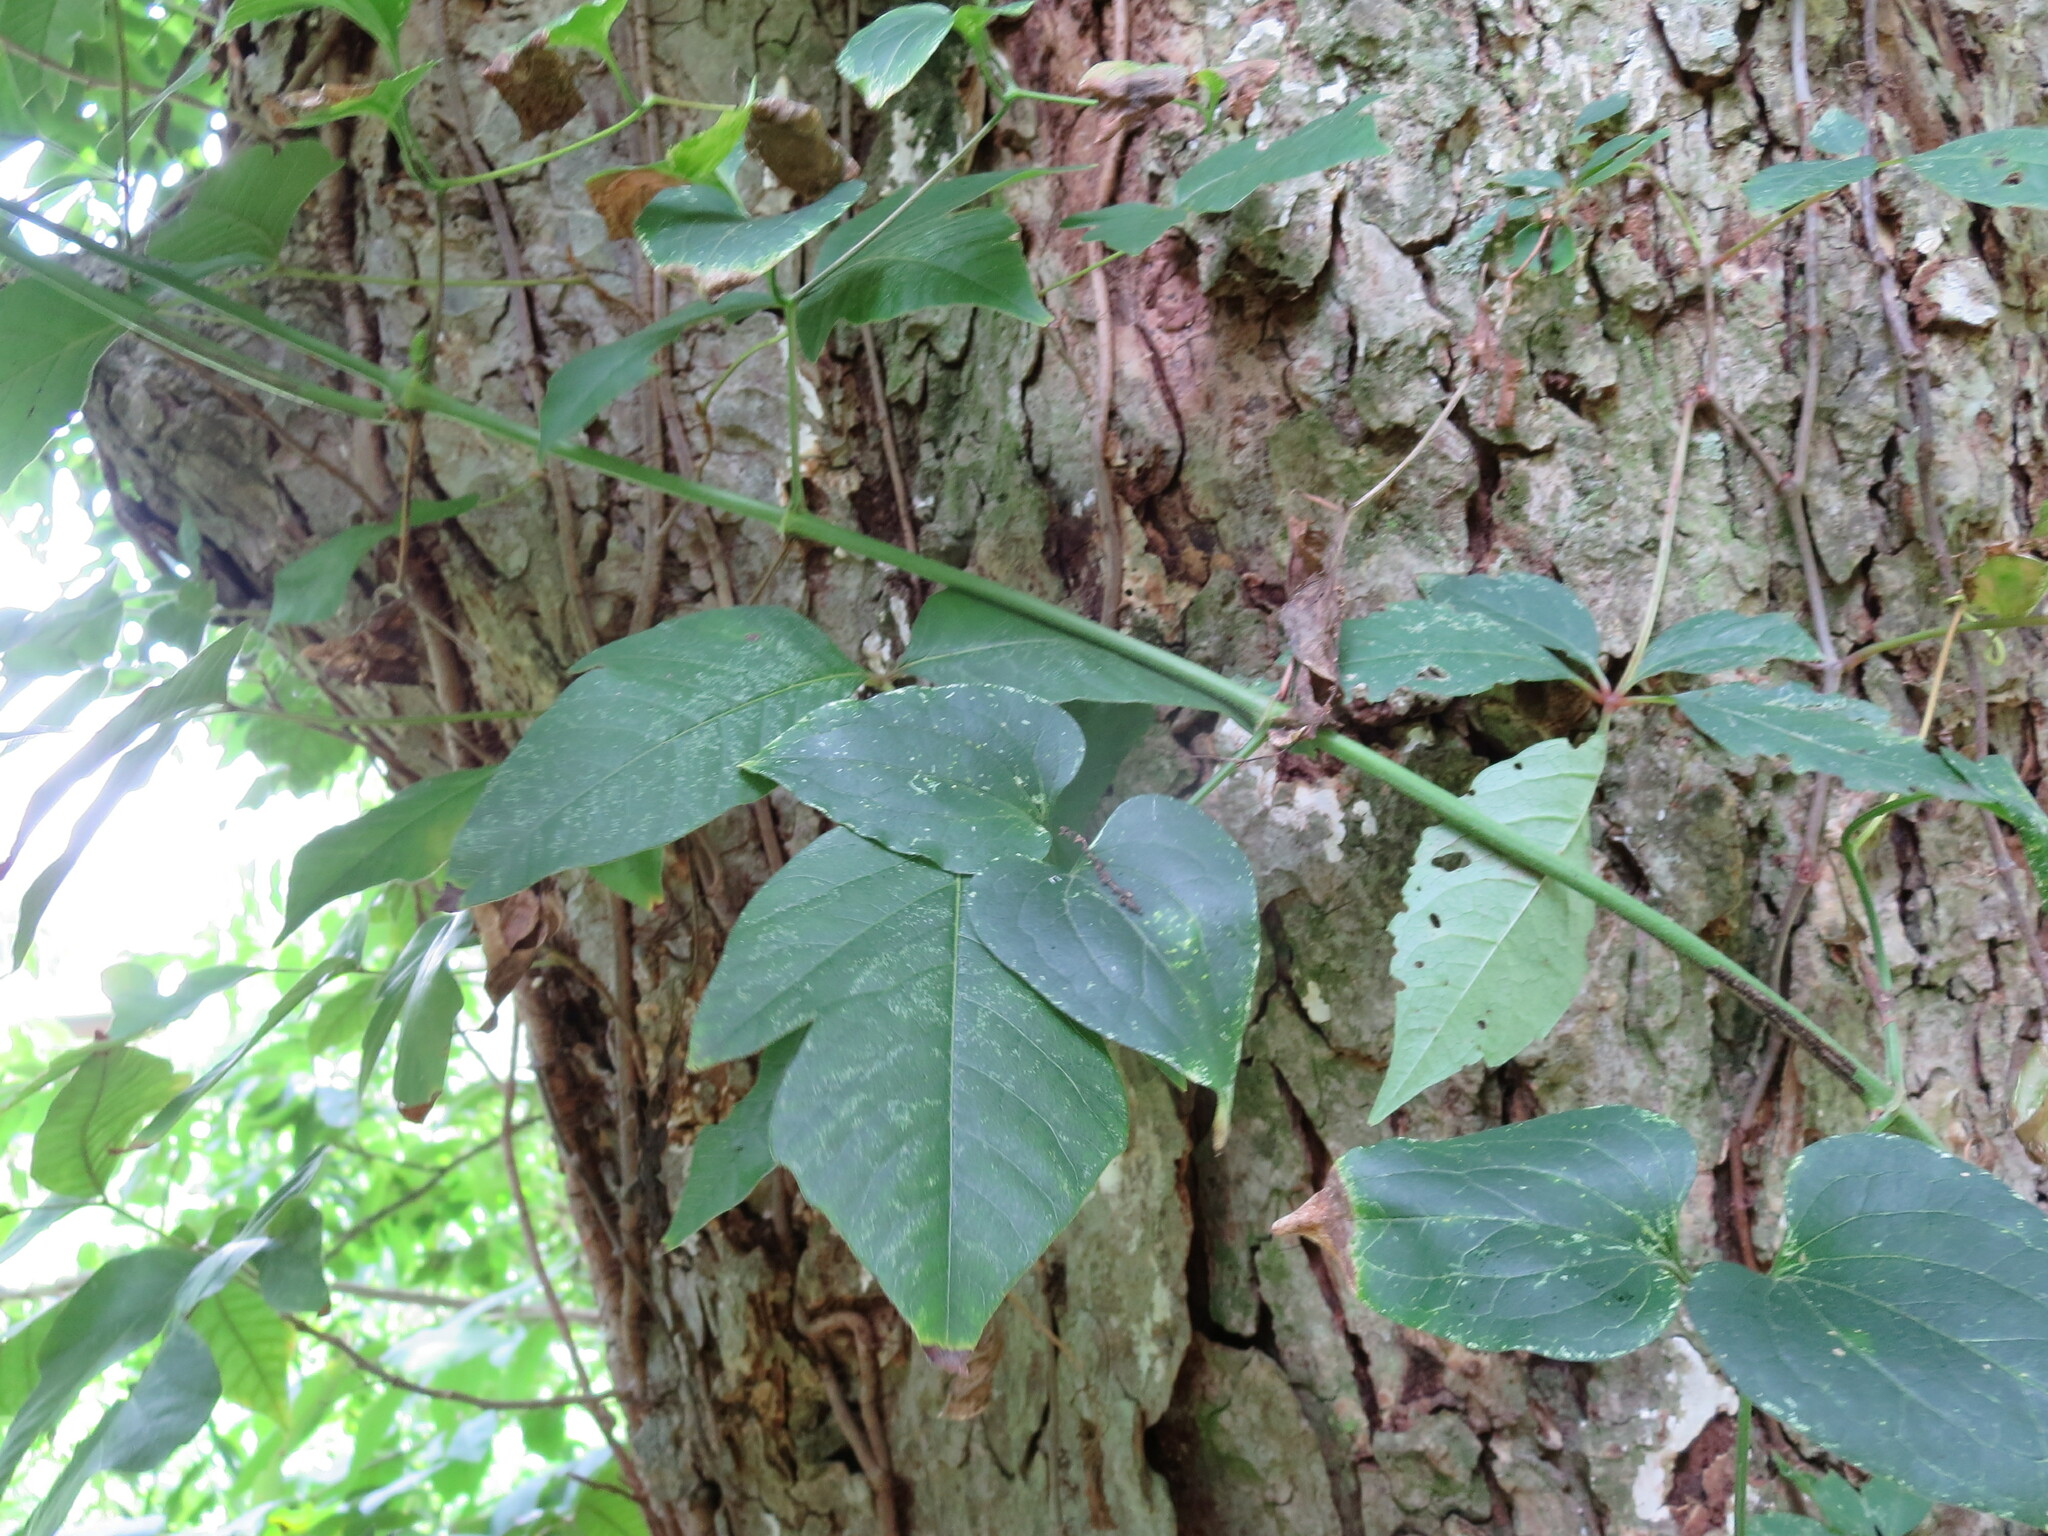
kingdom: Plantae
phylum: Tracheophyta
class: Magnoliopsida
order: Sapindales
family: Anacardiaceae
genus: Toxicodendron
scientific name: Toxicodendron radicans
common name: Poison ivy
